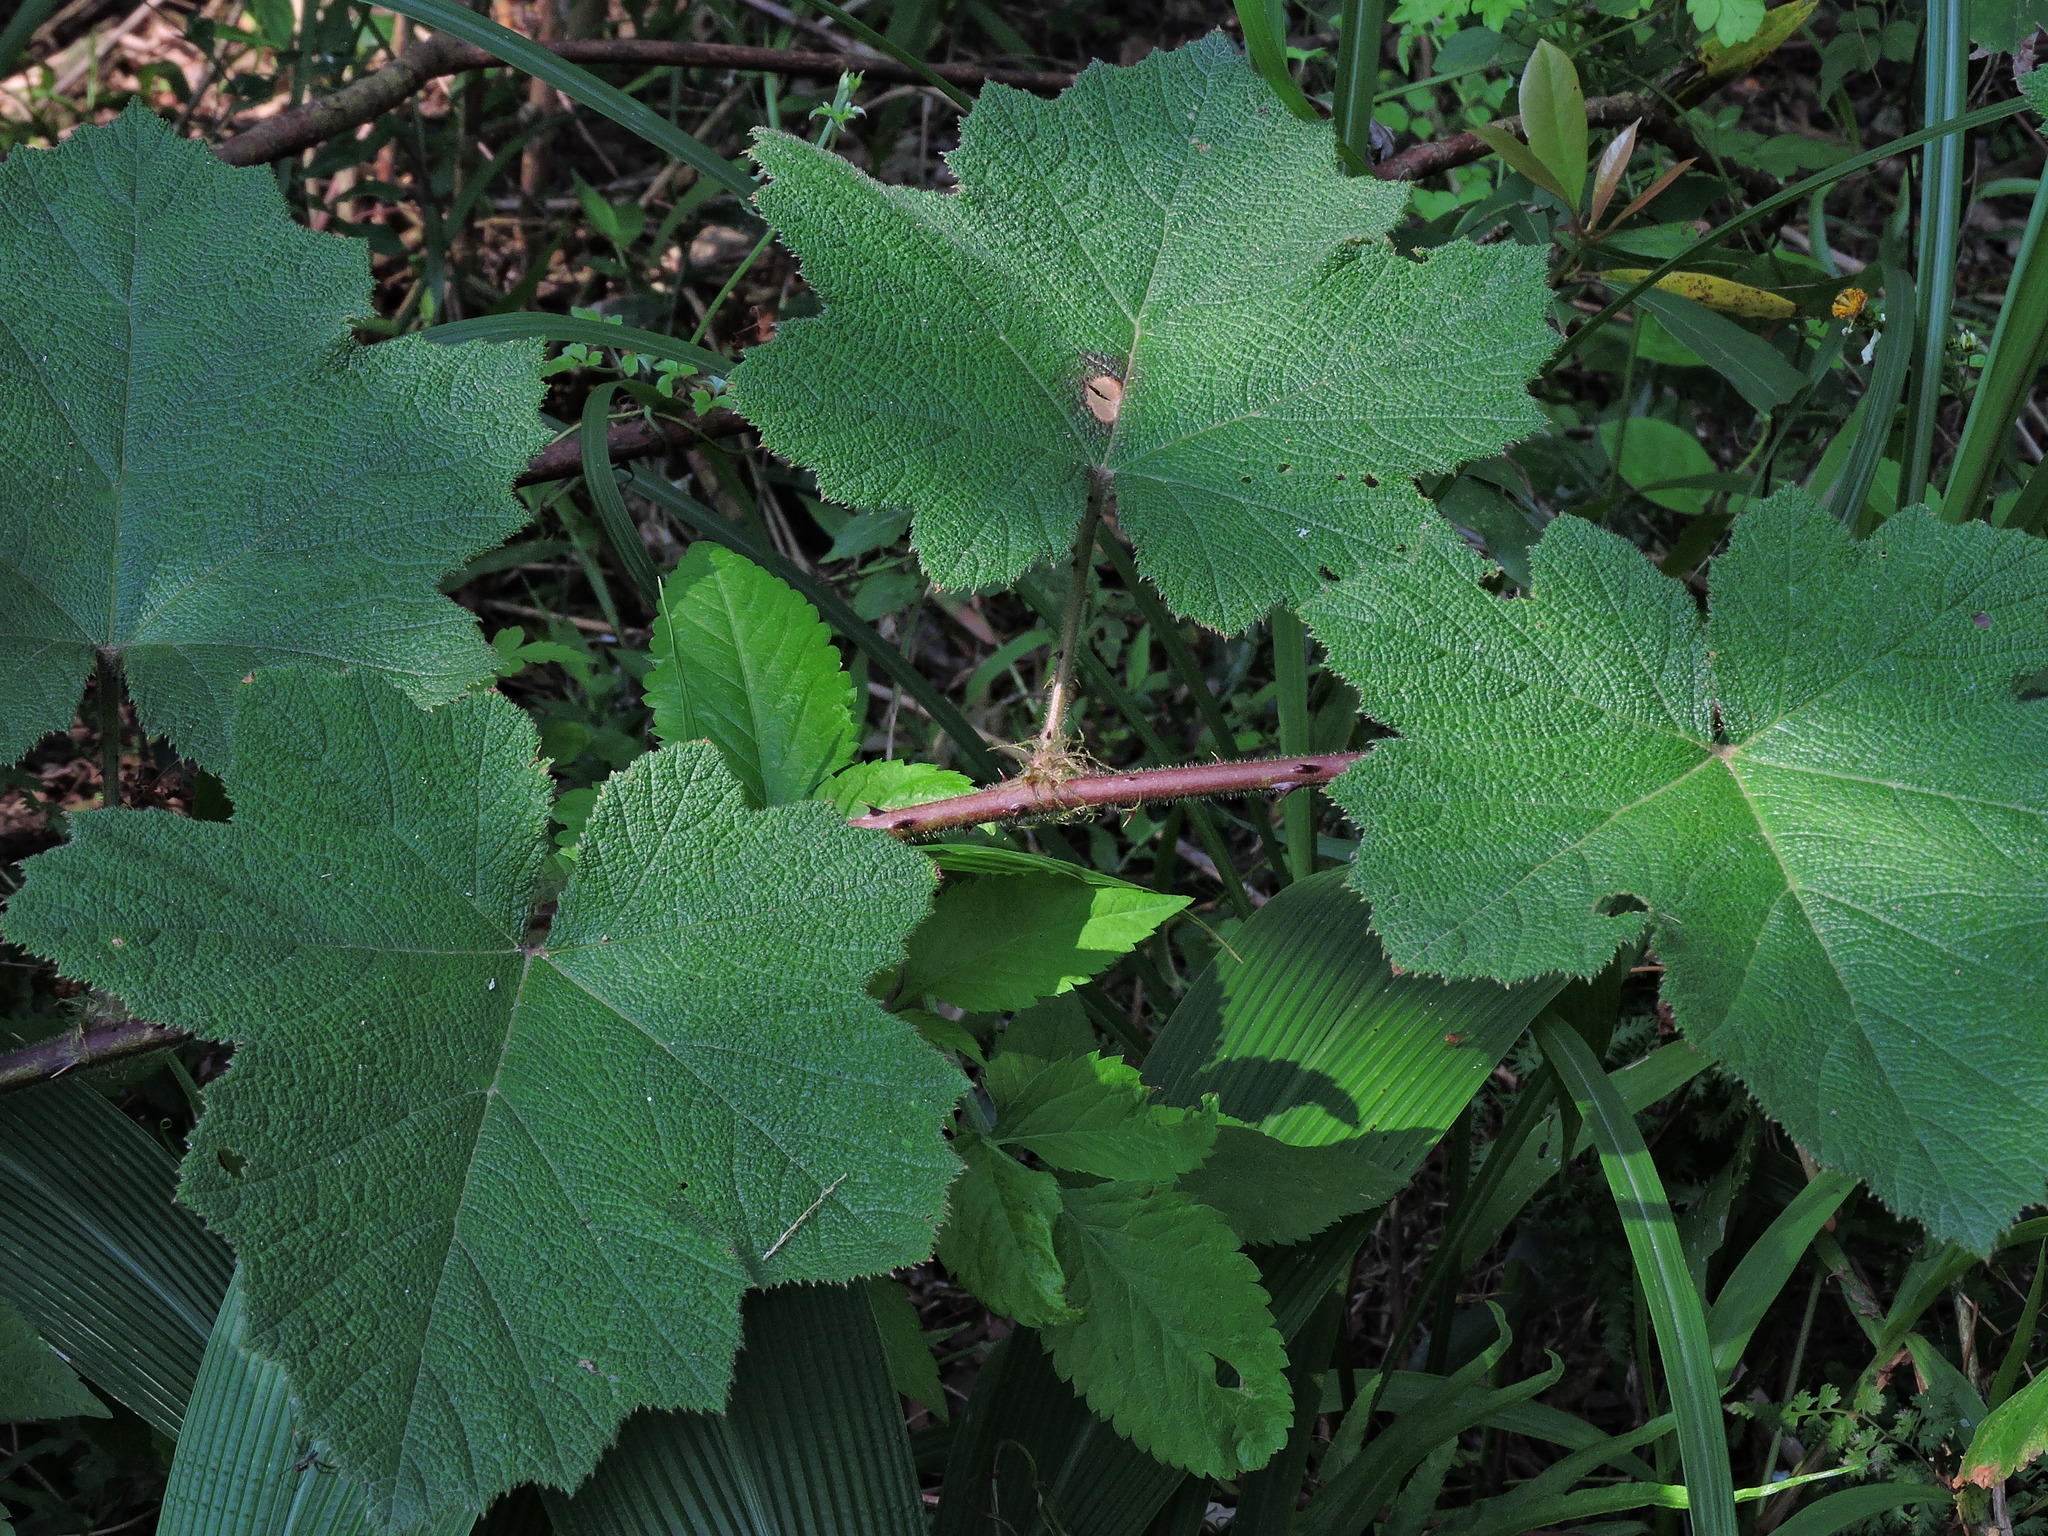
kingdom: Plantae
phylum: Tracheophyta
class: Magnoliopsida
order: Rosales
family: Rosaceae
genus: Rubus
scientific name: Rubus alceifolius
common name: Giant bramble
